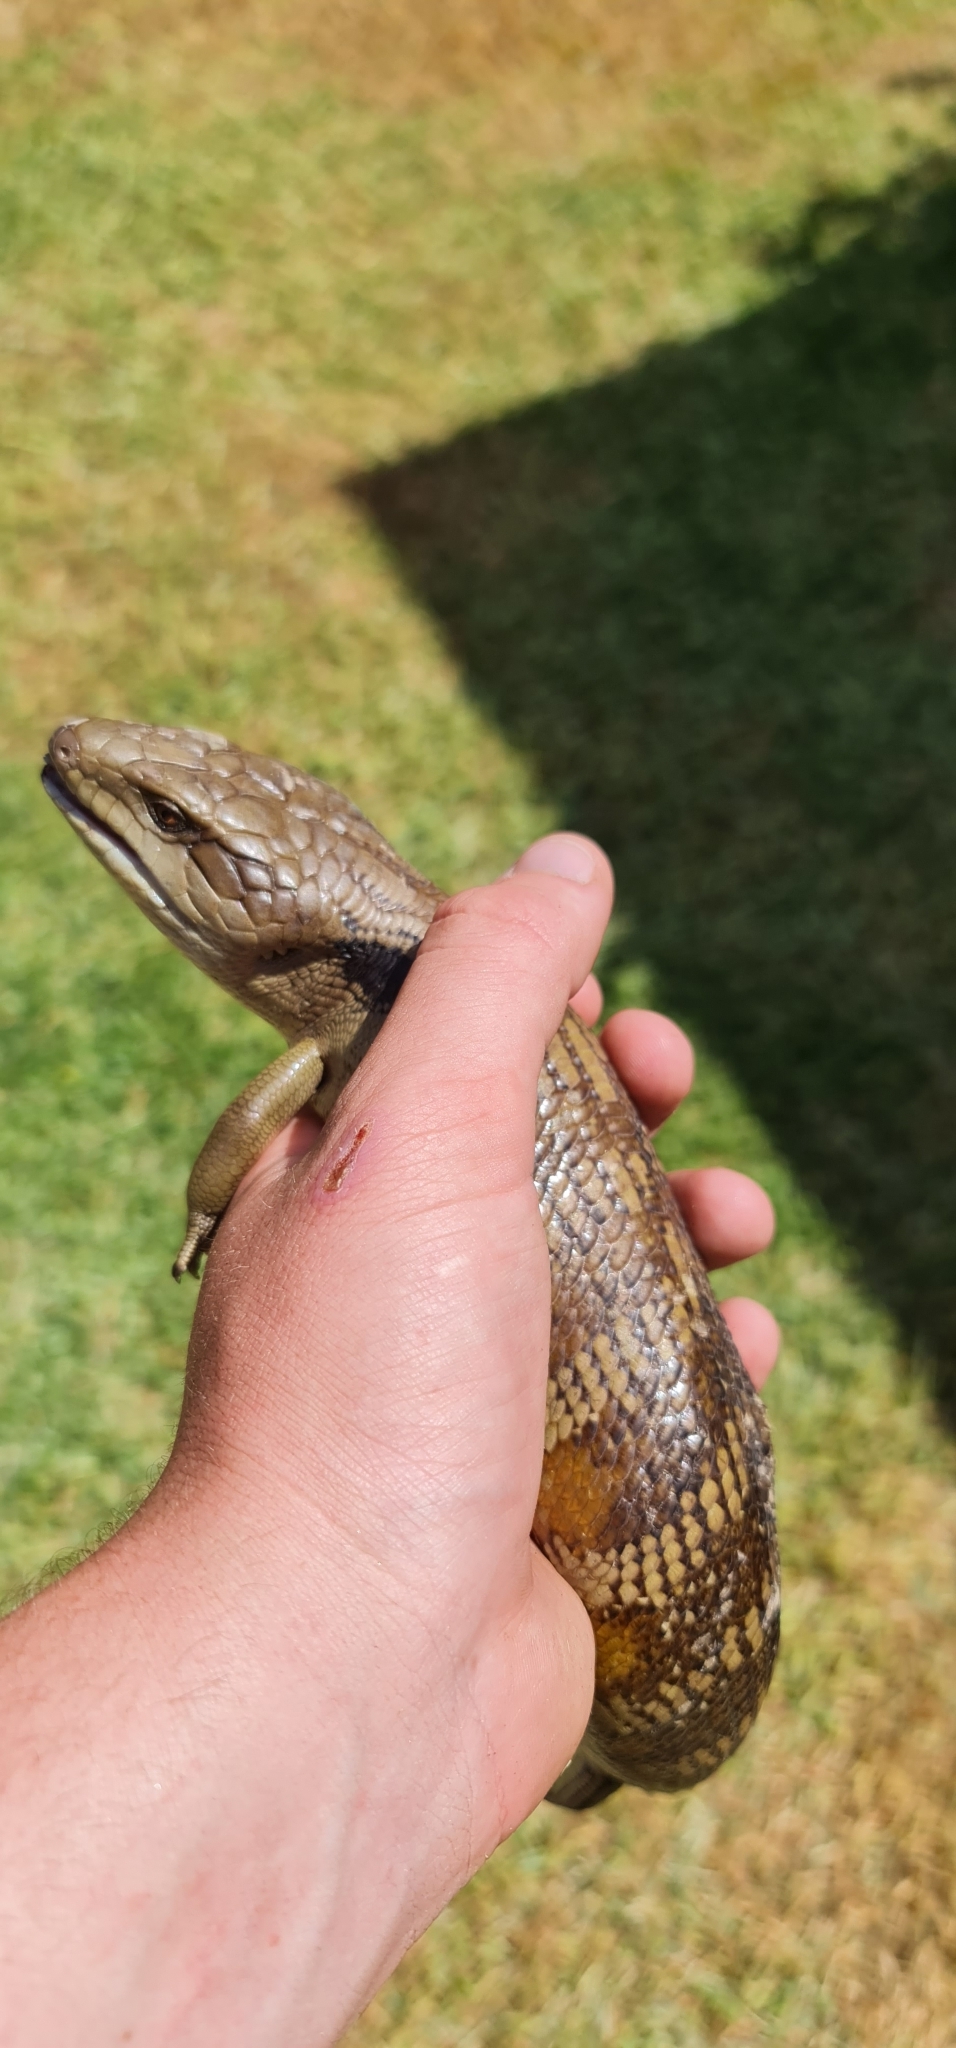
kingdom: Animalia
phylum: Chordata
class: Squamata
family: Scincidae
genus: Tiliqua
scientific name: Tiliqua scincoides
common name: Common bluetongue
